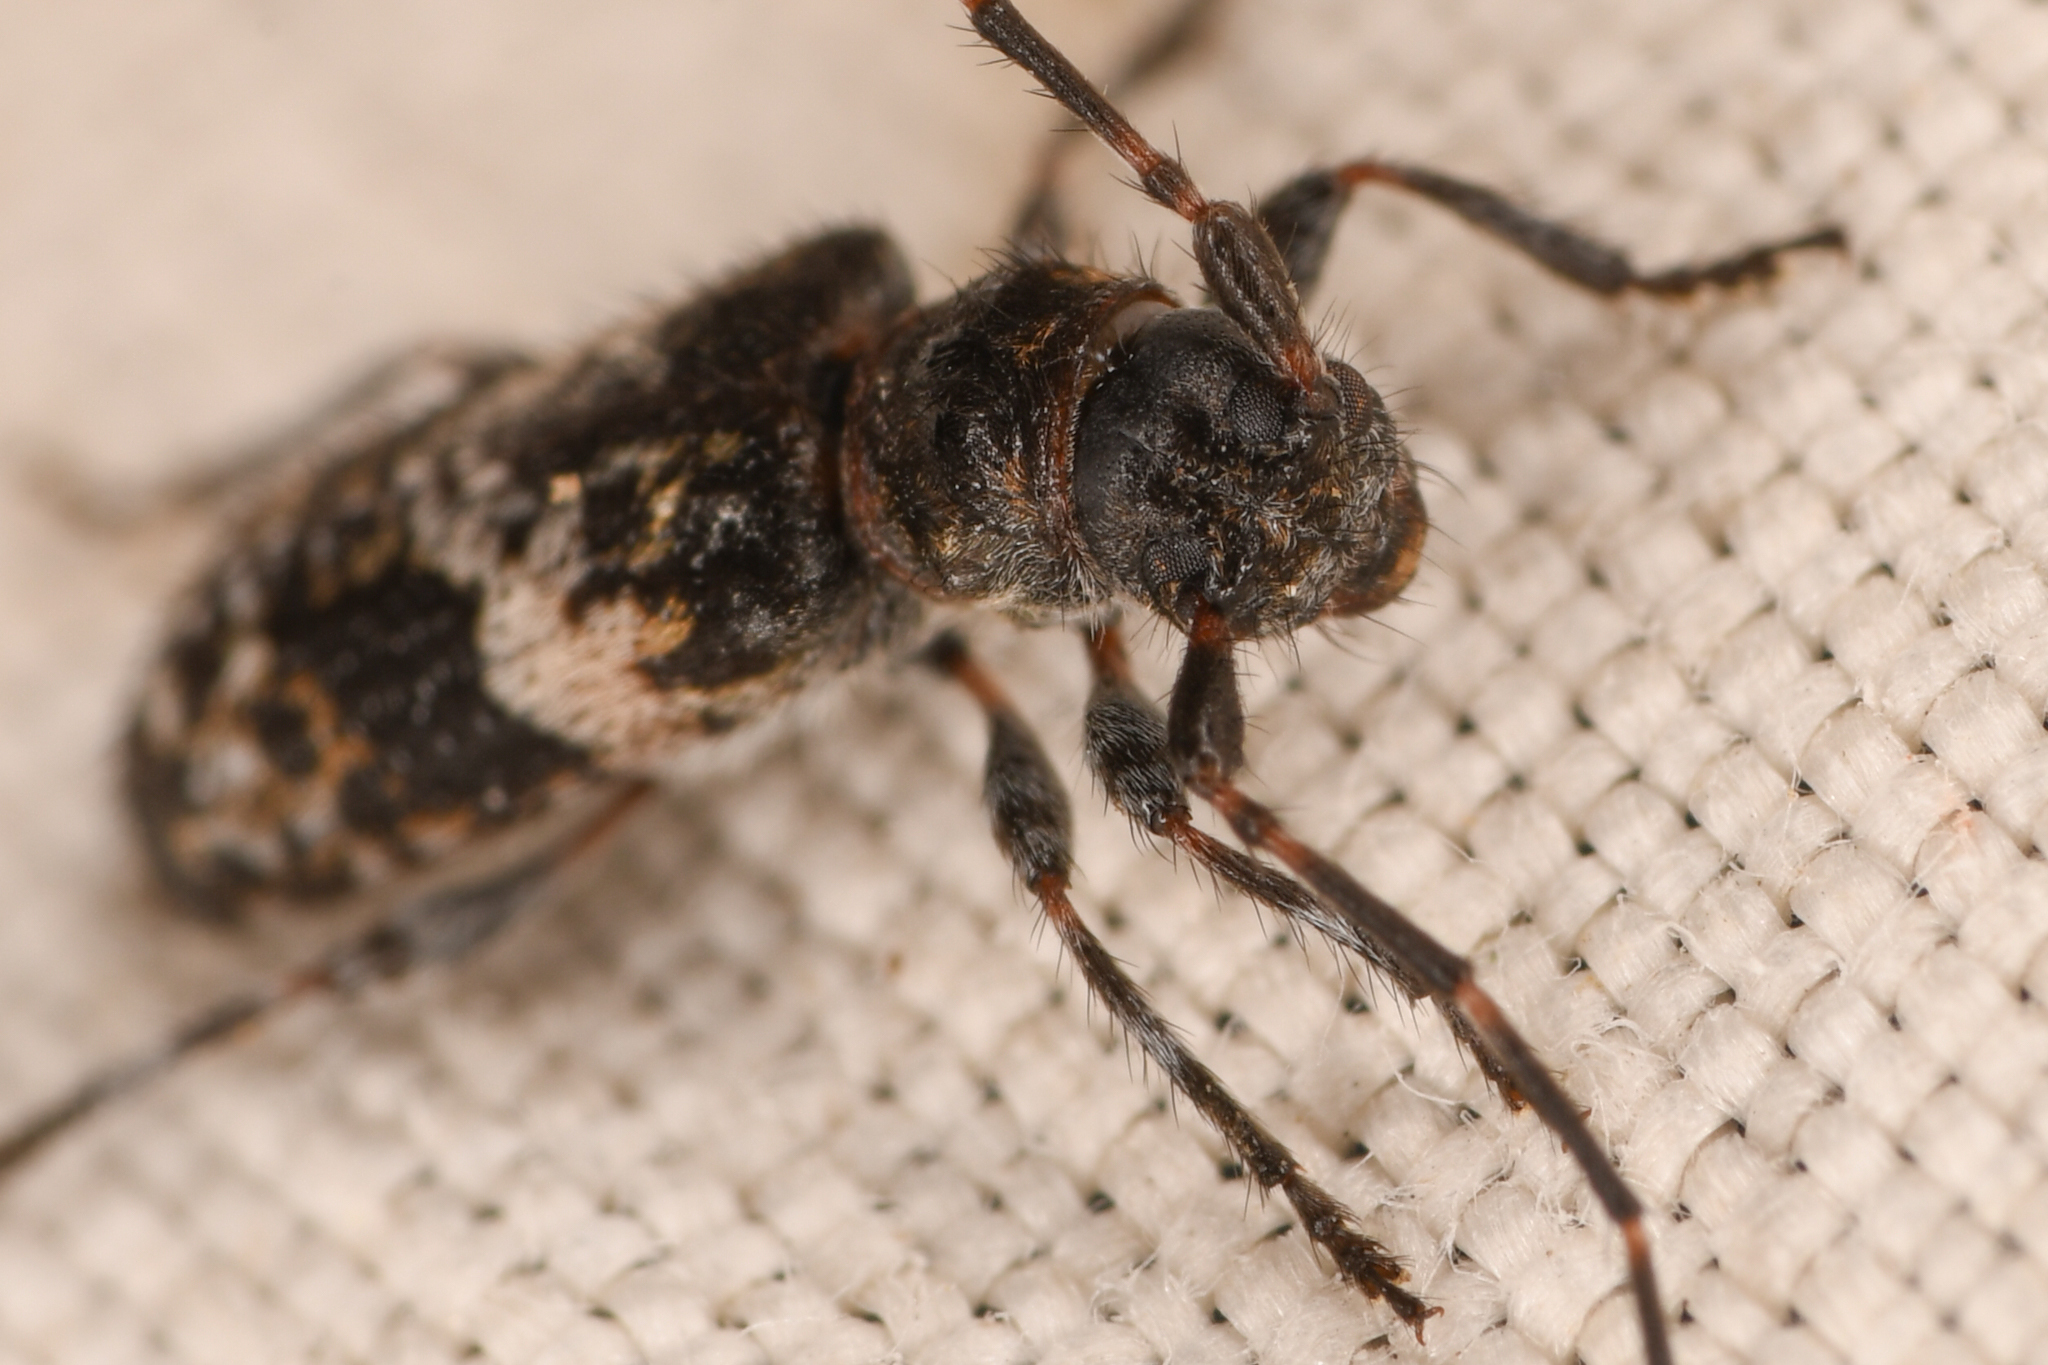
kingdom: Animalia
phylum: Arthropoda
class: Insecta
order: Coleoptera
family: Cerambycidae
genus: Pogonocherus
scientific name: Pogonocherus mixtus
